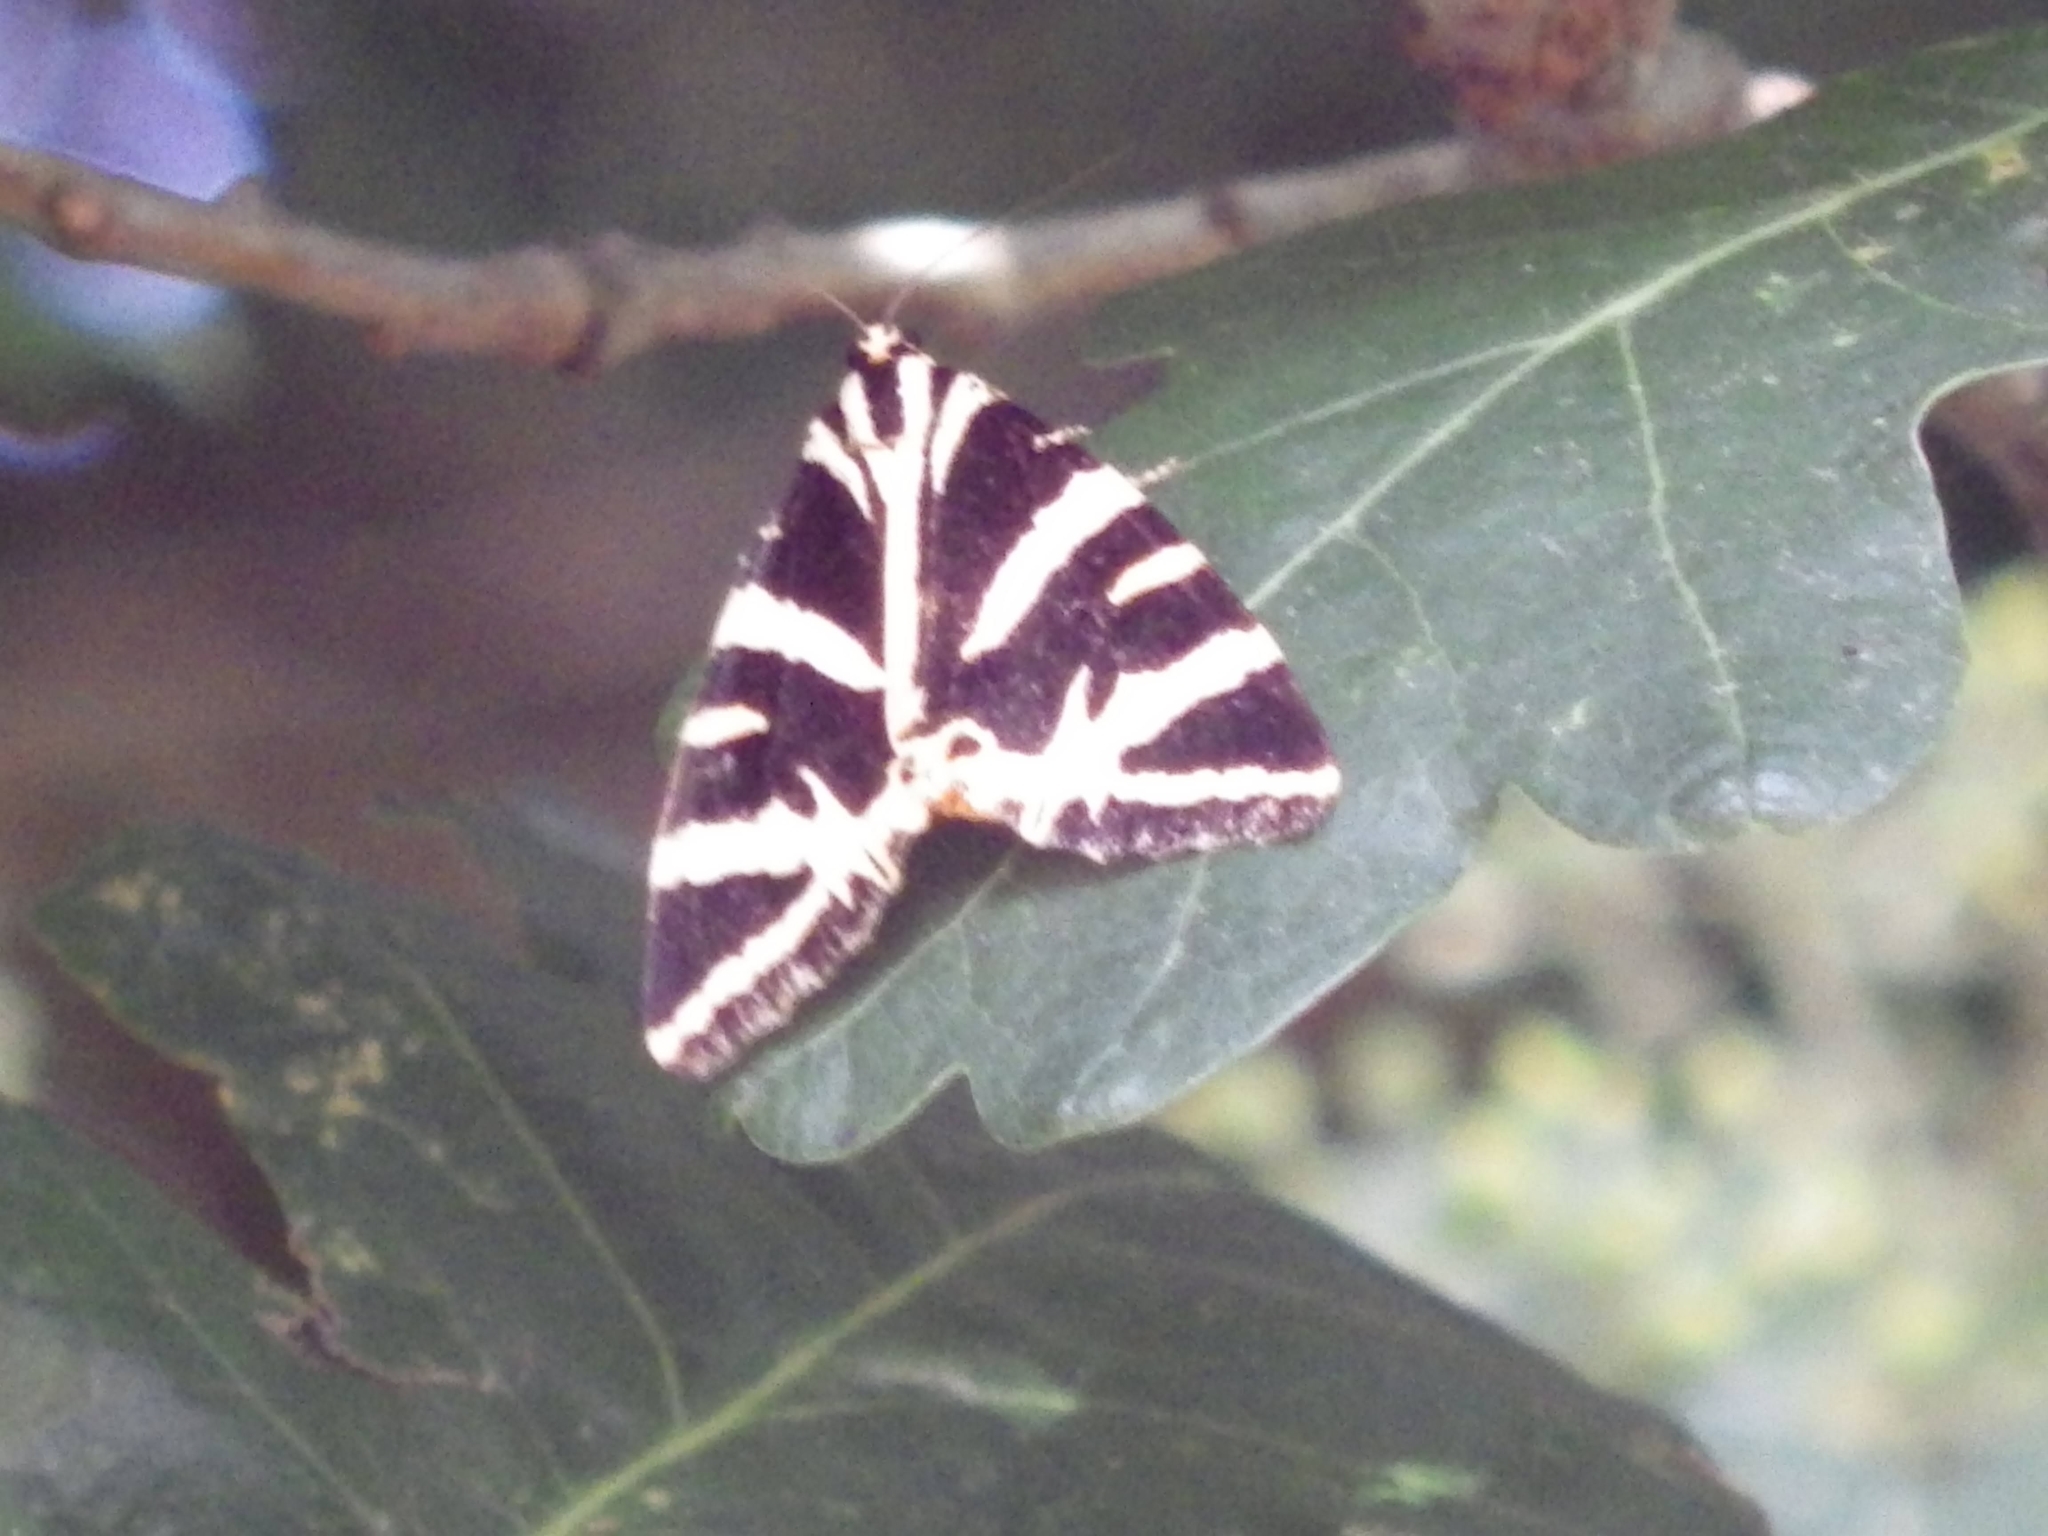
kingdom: Animalia
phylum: Arthropoda
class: Insecta
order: Lepidoptera
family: Erebidae
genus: Euplagia
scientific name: Euplagia quadripunctaria
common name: Jersey tiger
